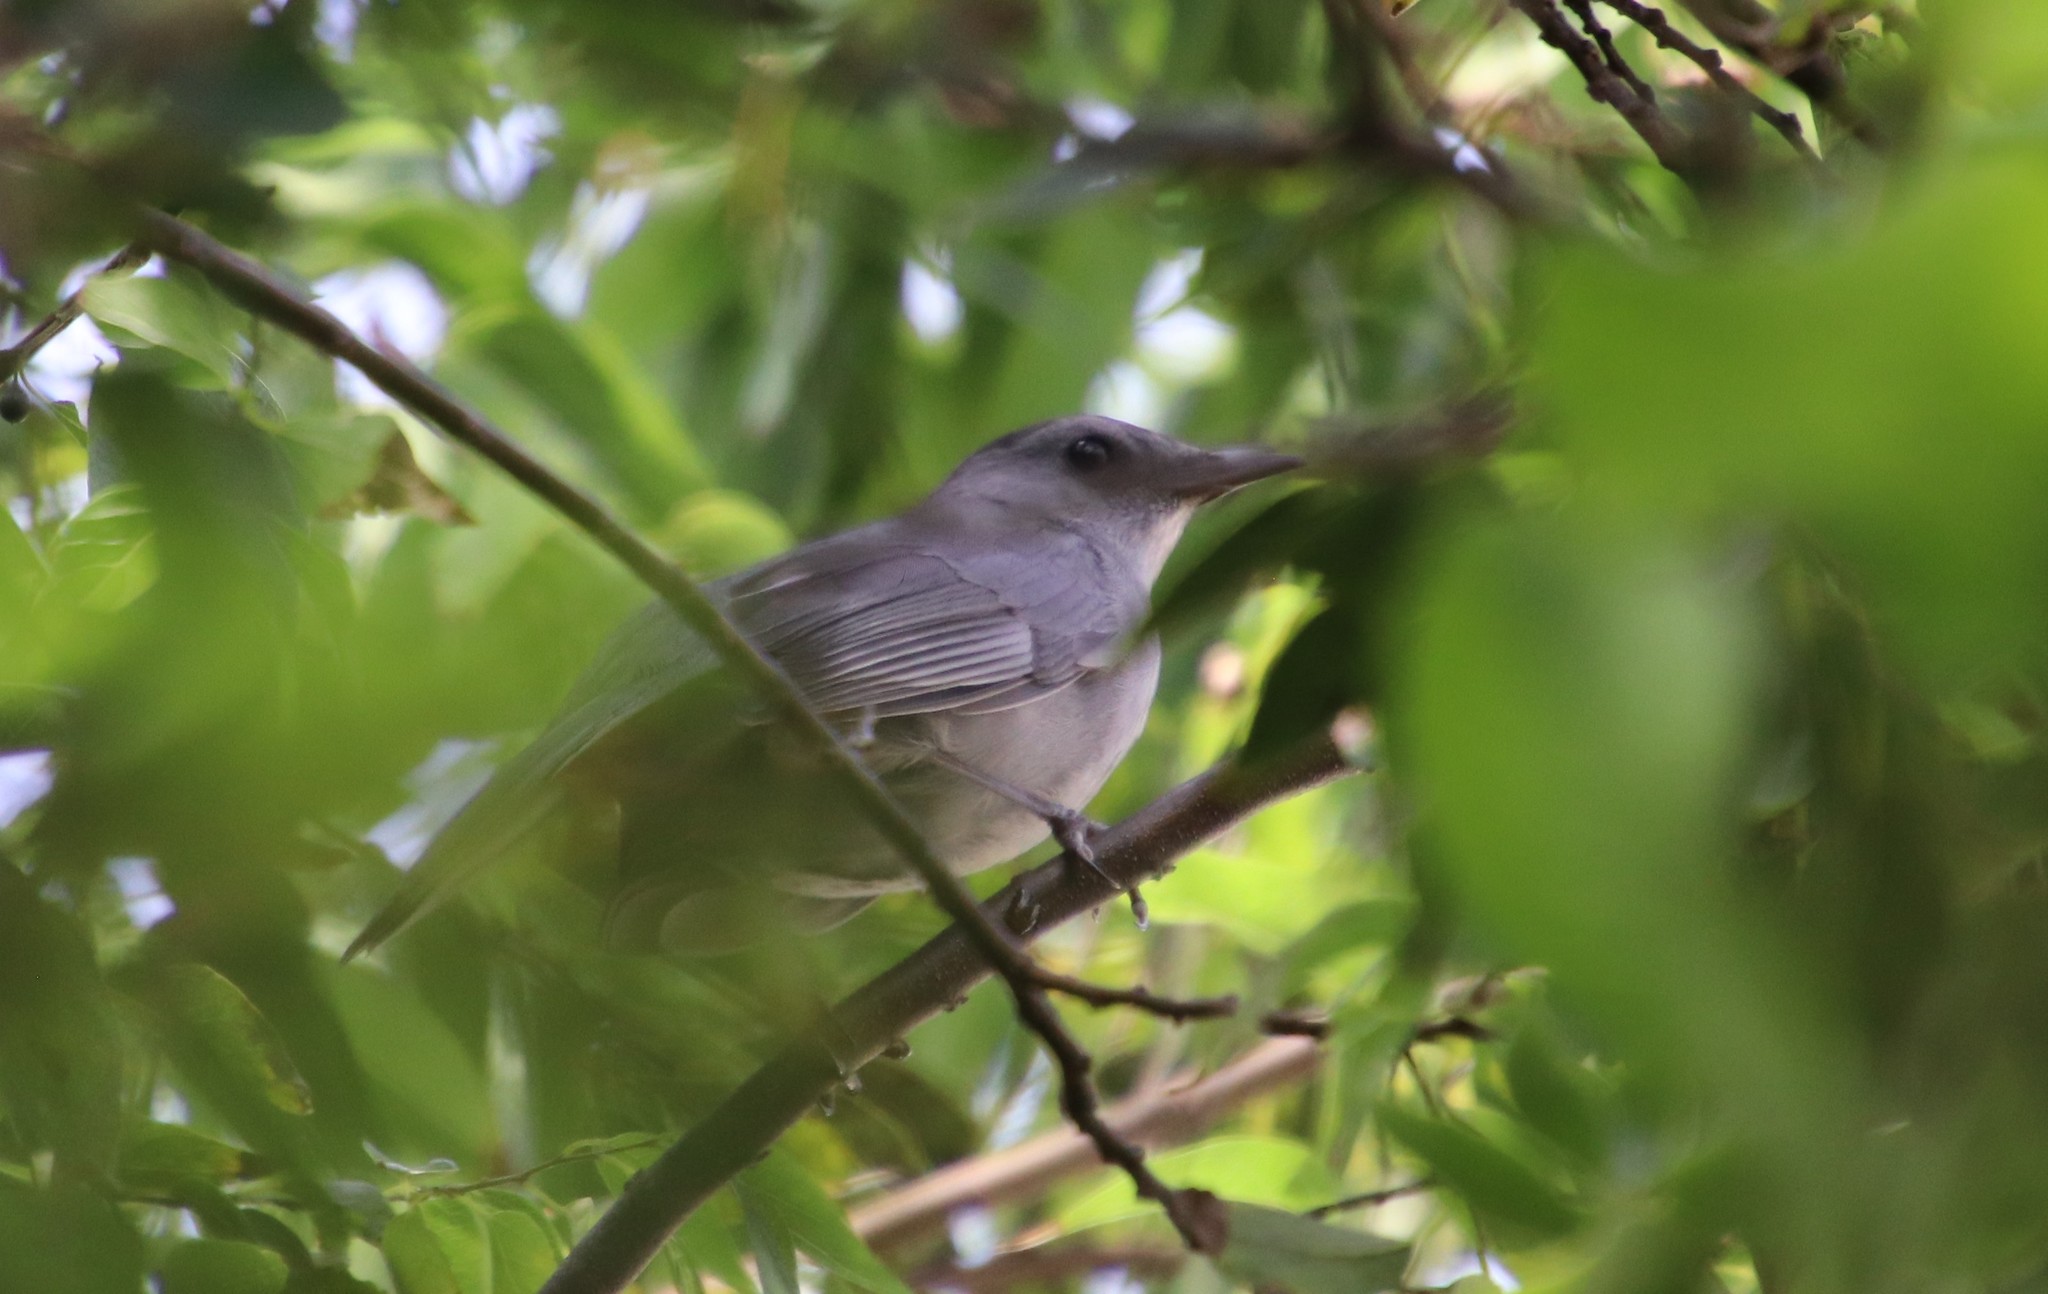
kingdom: Animalia
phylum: Chordata
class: Aves
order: Passeriformes
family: Mimidae
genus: Dumetella
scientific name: Dumetella carolinensis
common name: Gray catbird
